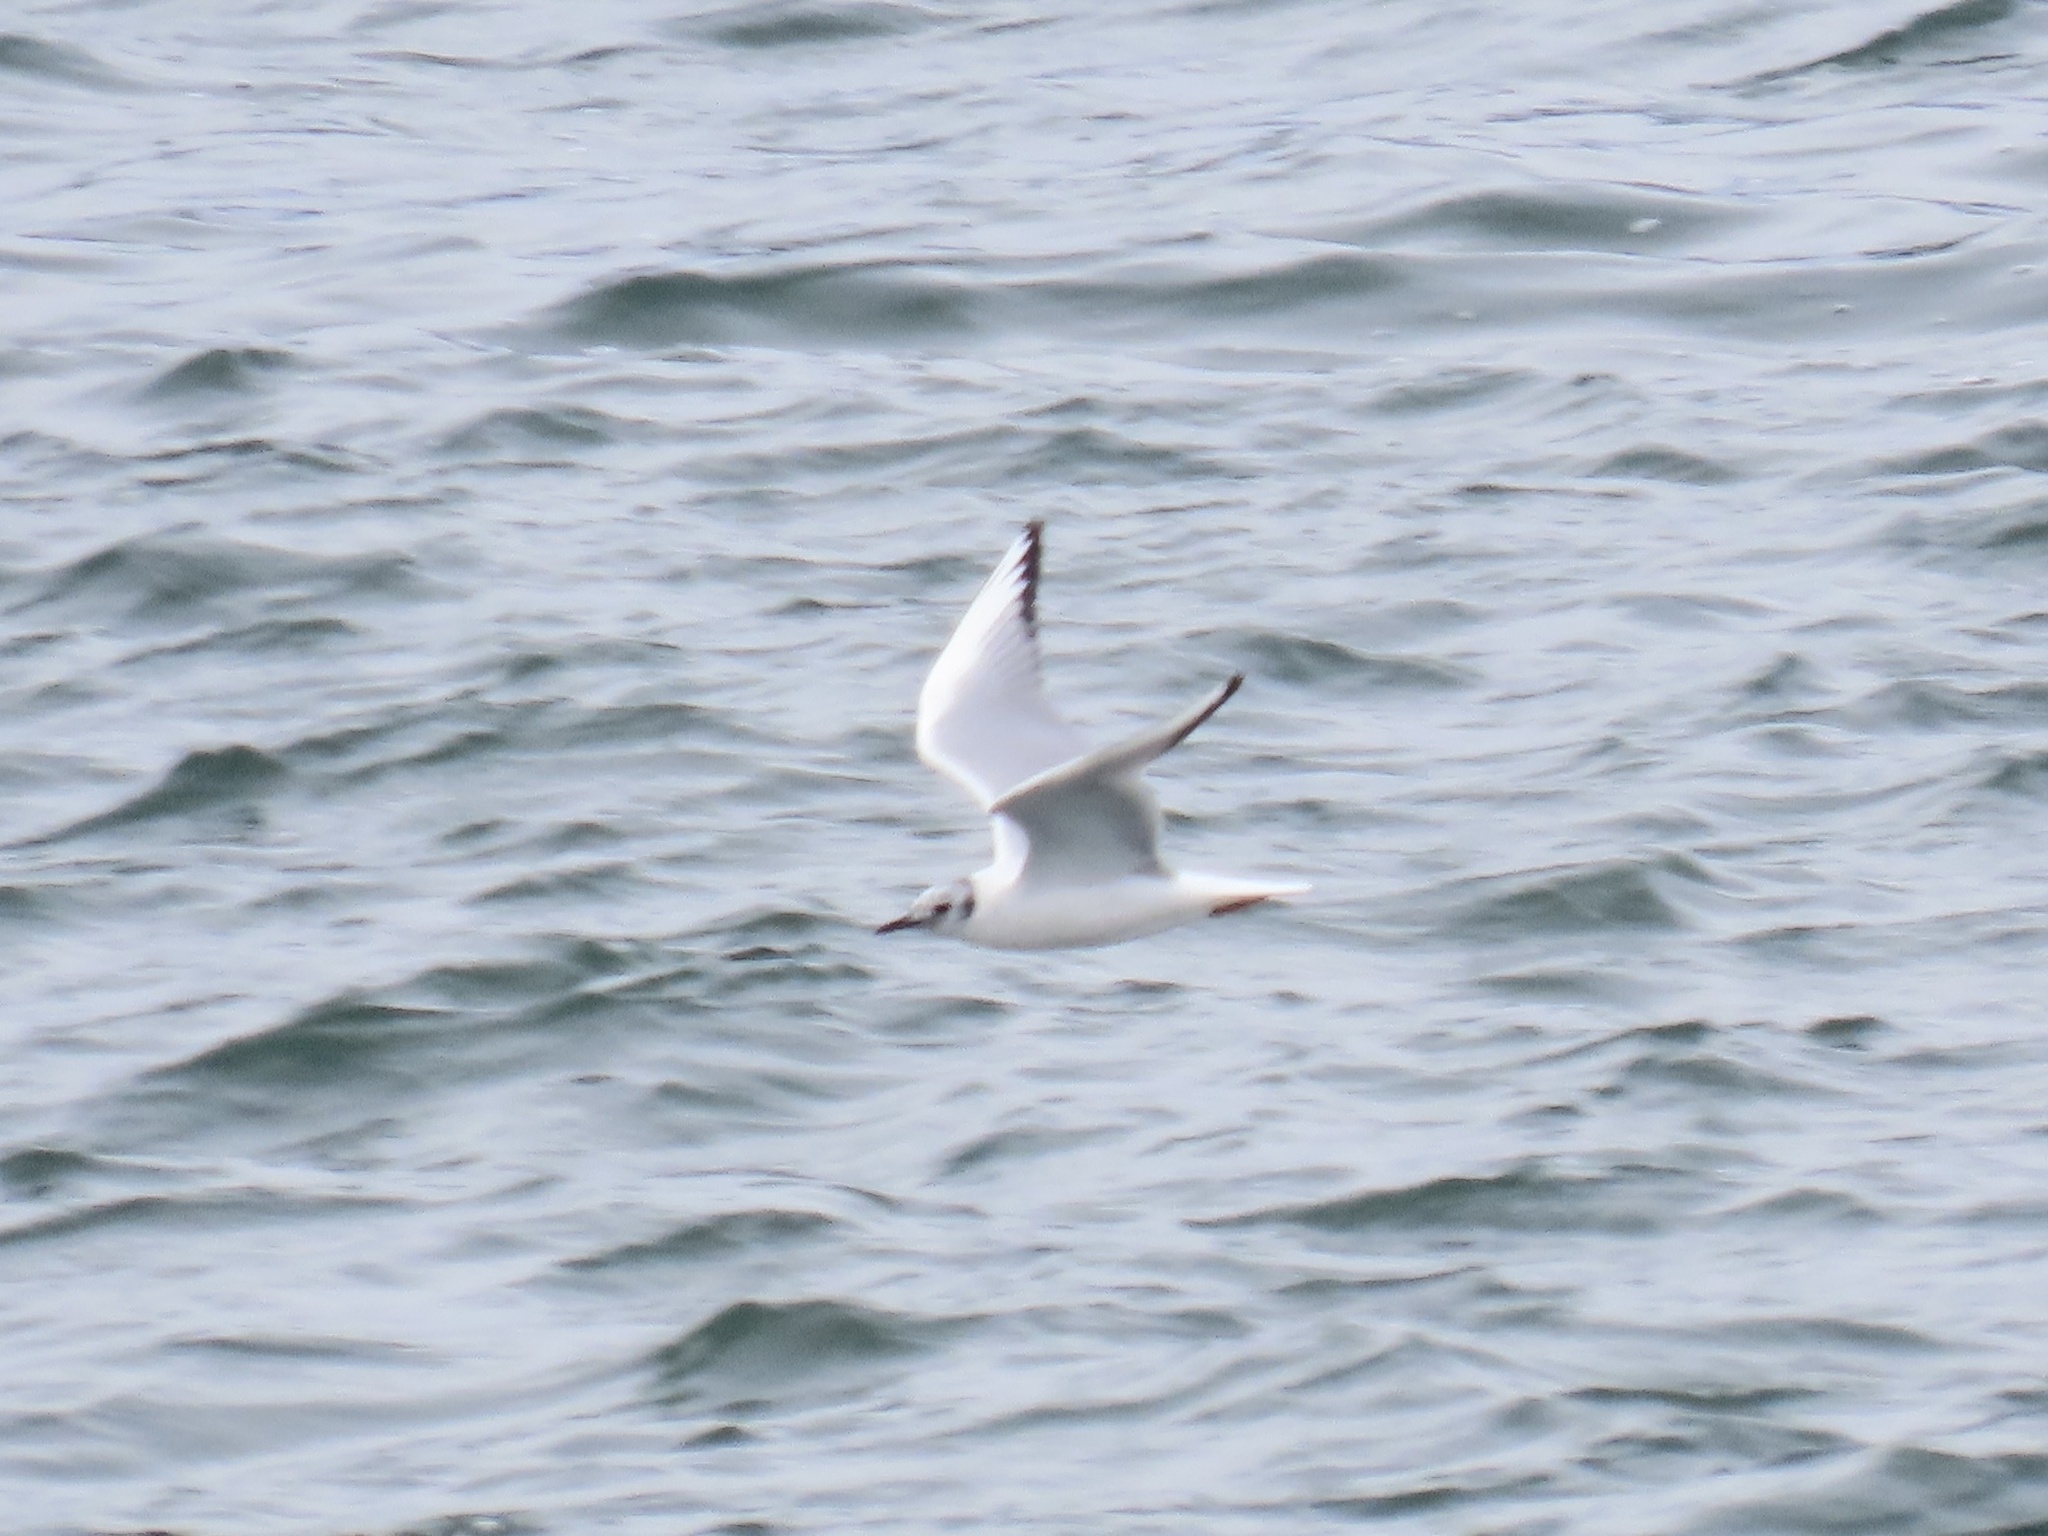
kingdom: Animalia
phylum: Chordata
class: Aves
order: Charadriiformes
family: Laridae
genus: Chroicocephalus
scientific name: Chroicocephalus philadelphia
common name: Bonaparte's gull
